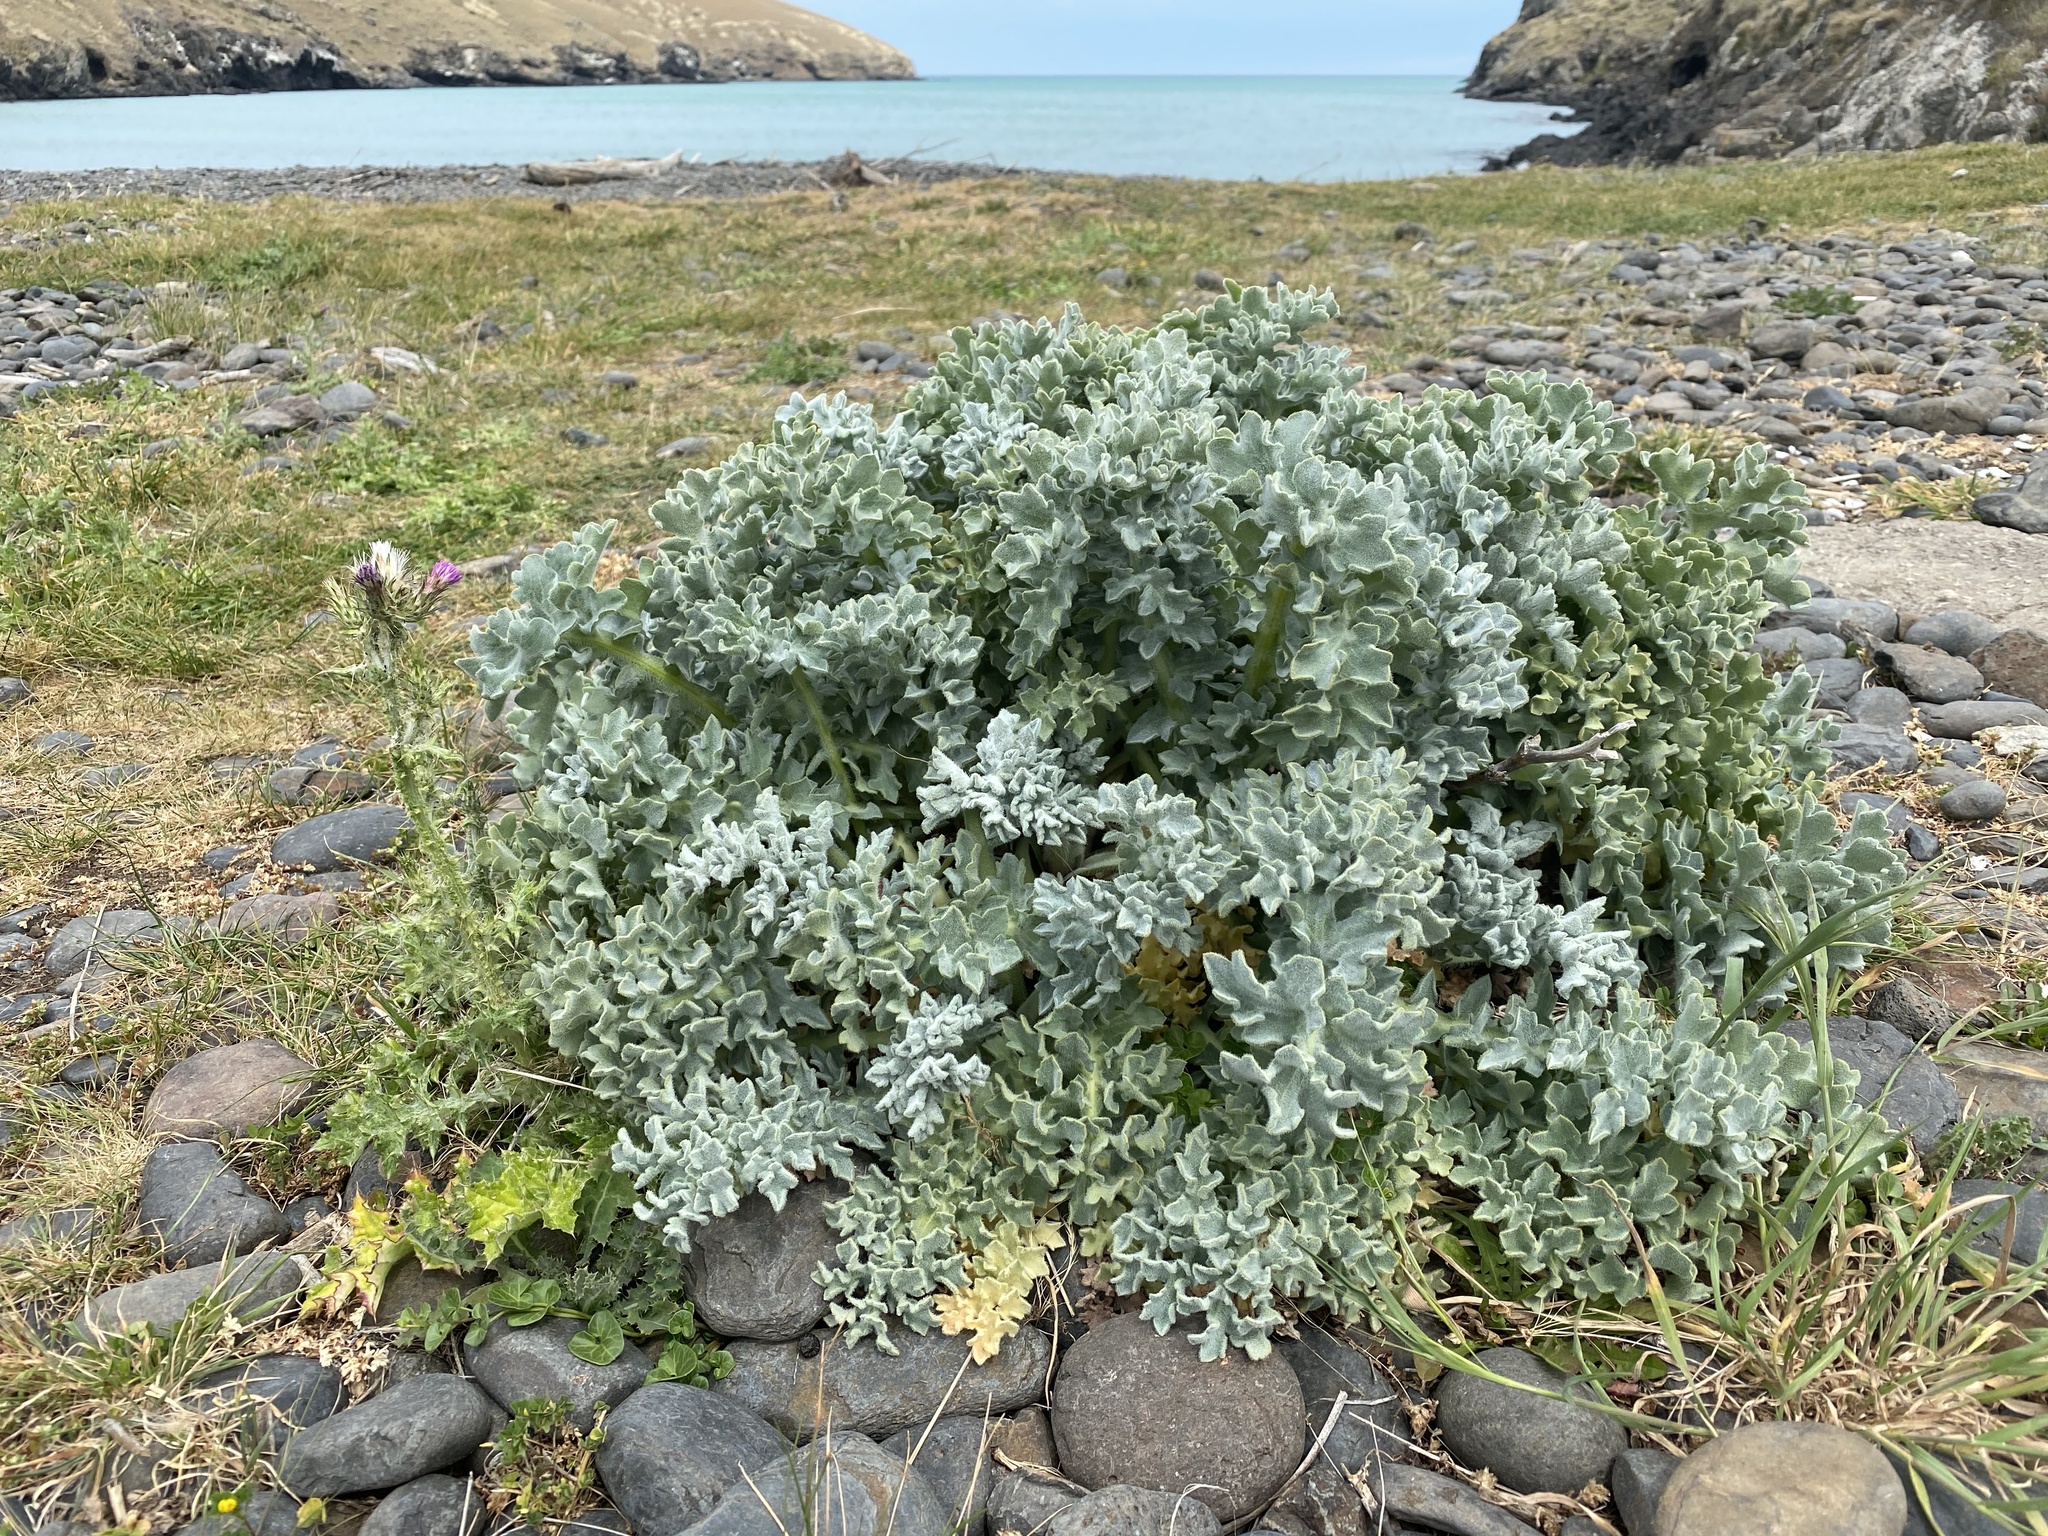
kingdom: Plantae
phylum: Tracheophyta
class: Magnoliopsida
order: Ranunculales
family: Papaveraceae
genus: Glaucium
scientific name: Glaucium flavum
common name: Yellow horned-poppy
